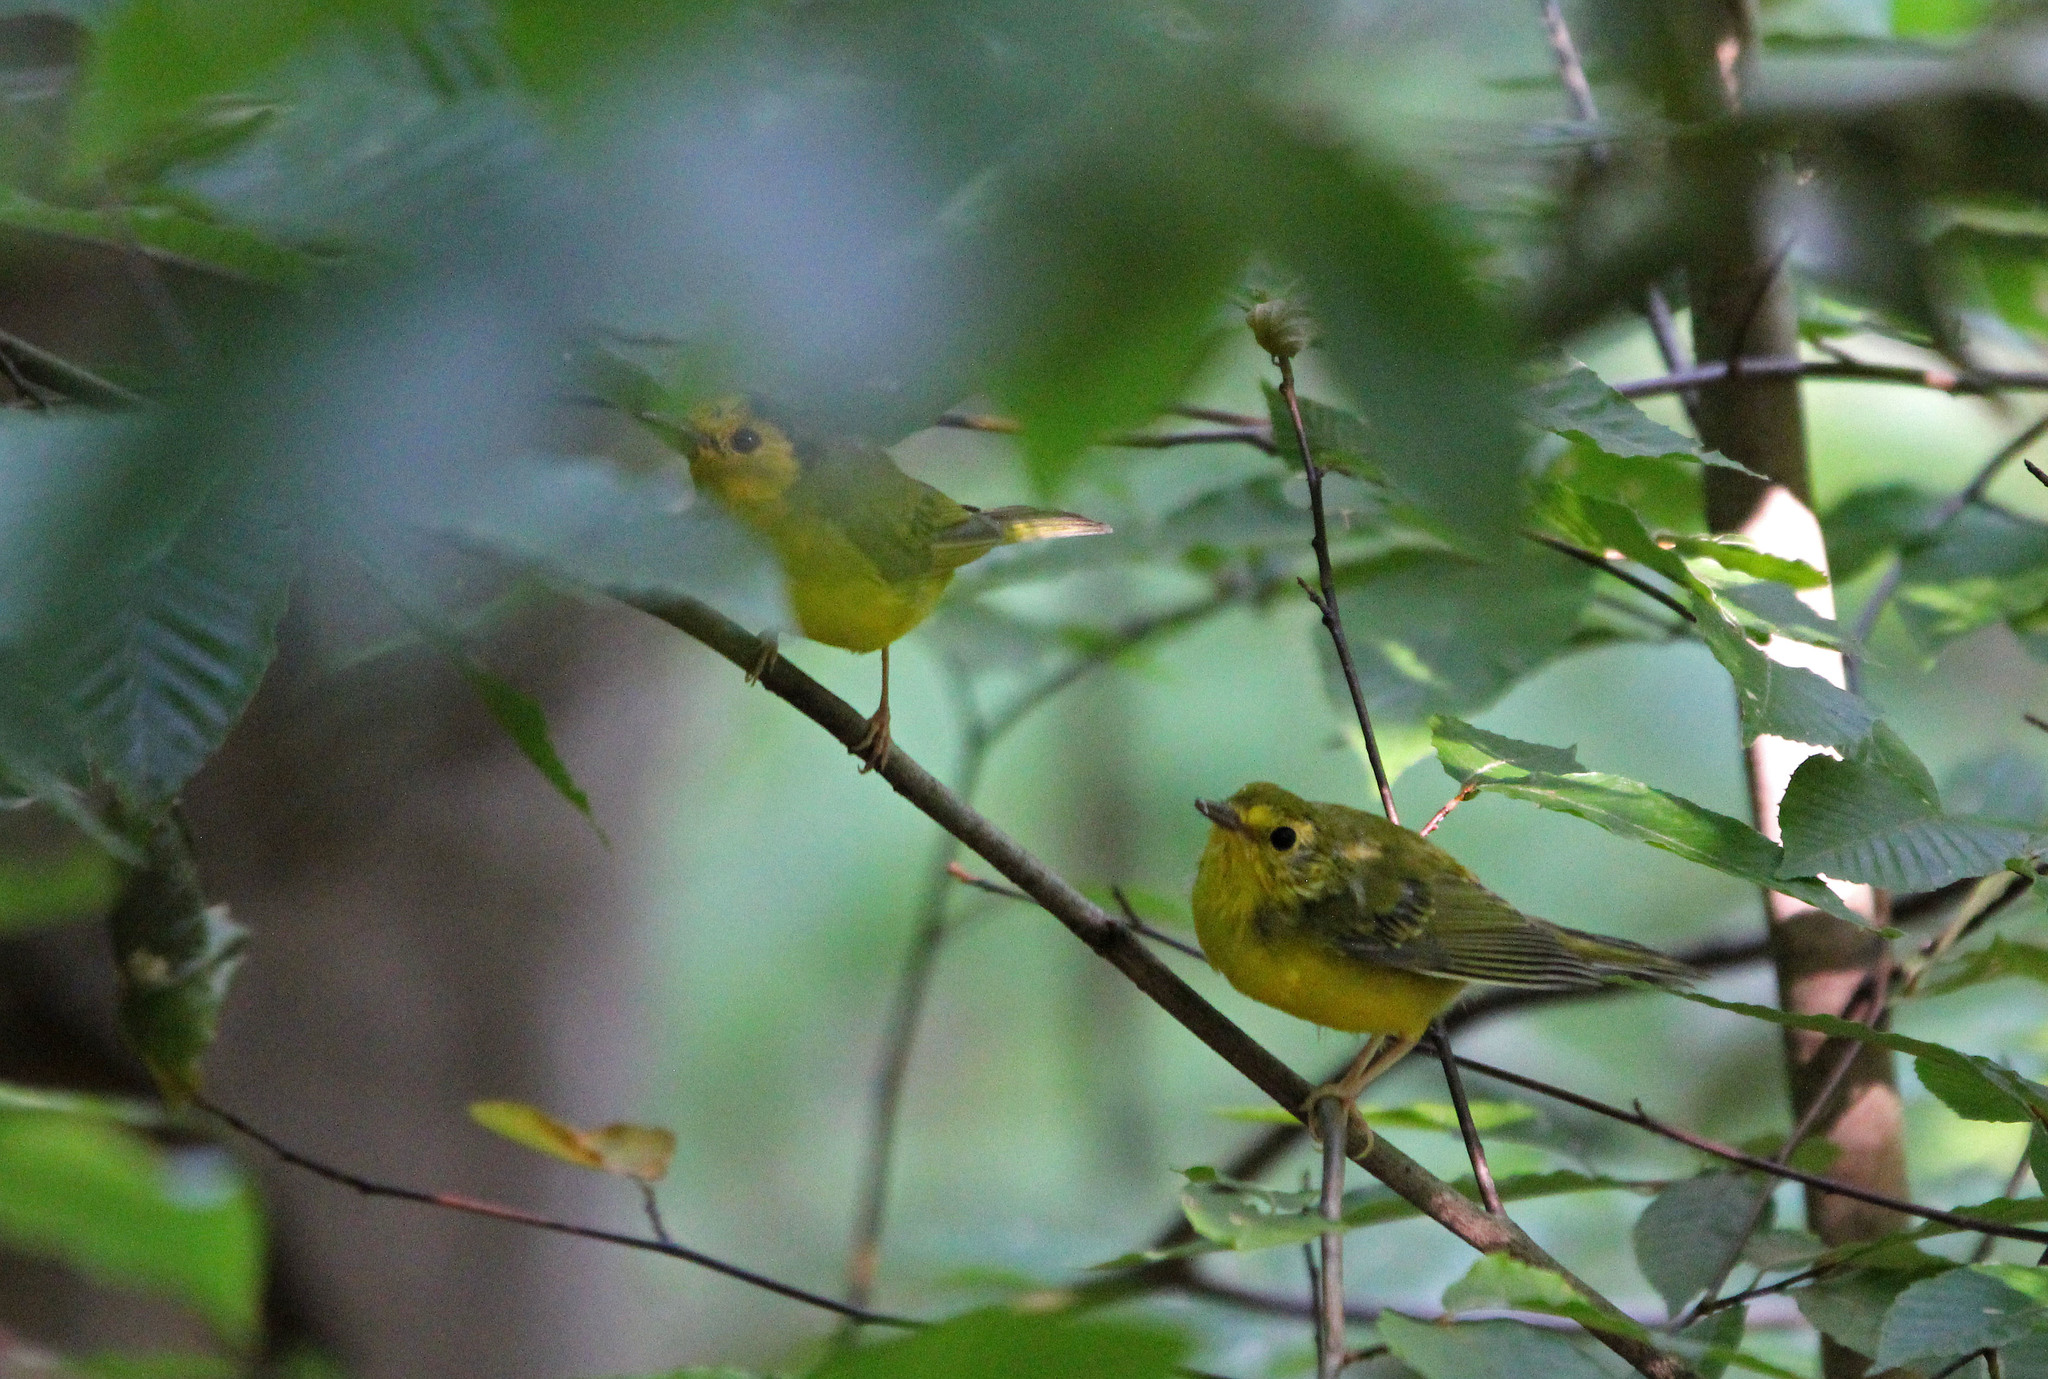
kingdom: Animalia
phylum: Chordata
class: Aves
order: Passeriformes
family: Parulidae
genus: Setophaga
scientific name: Setophaga citrina
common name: Hooded warbler
